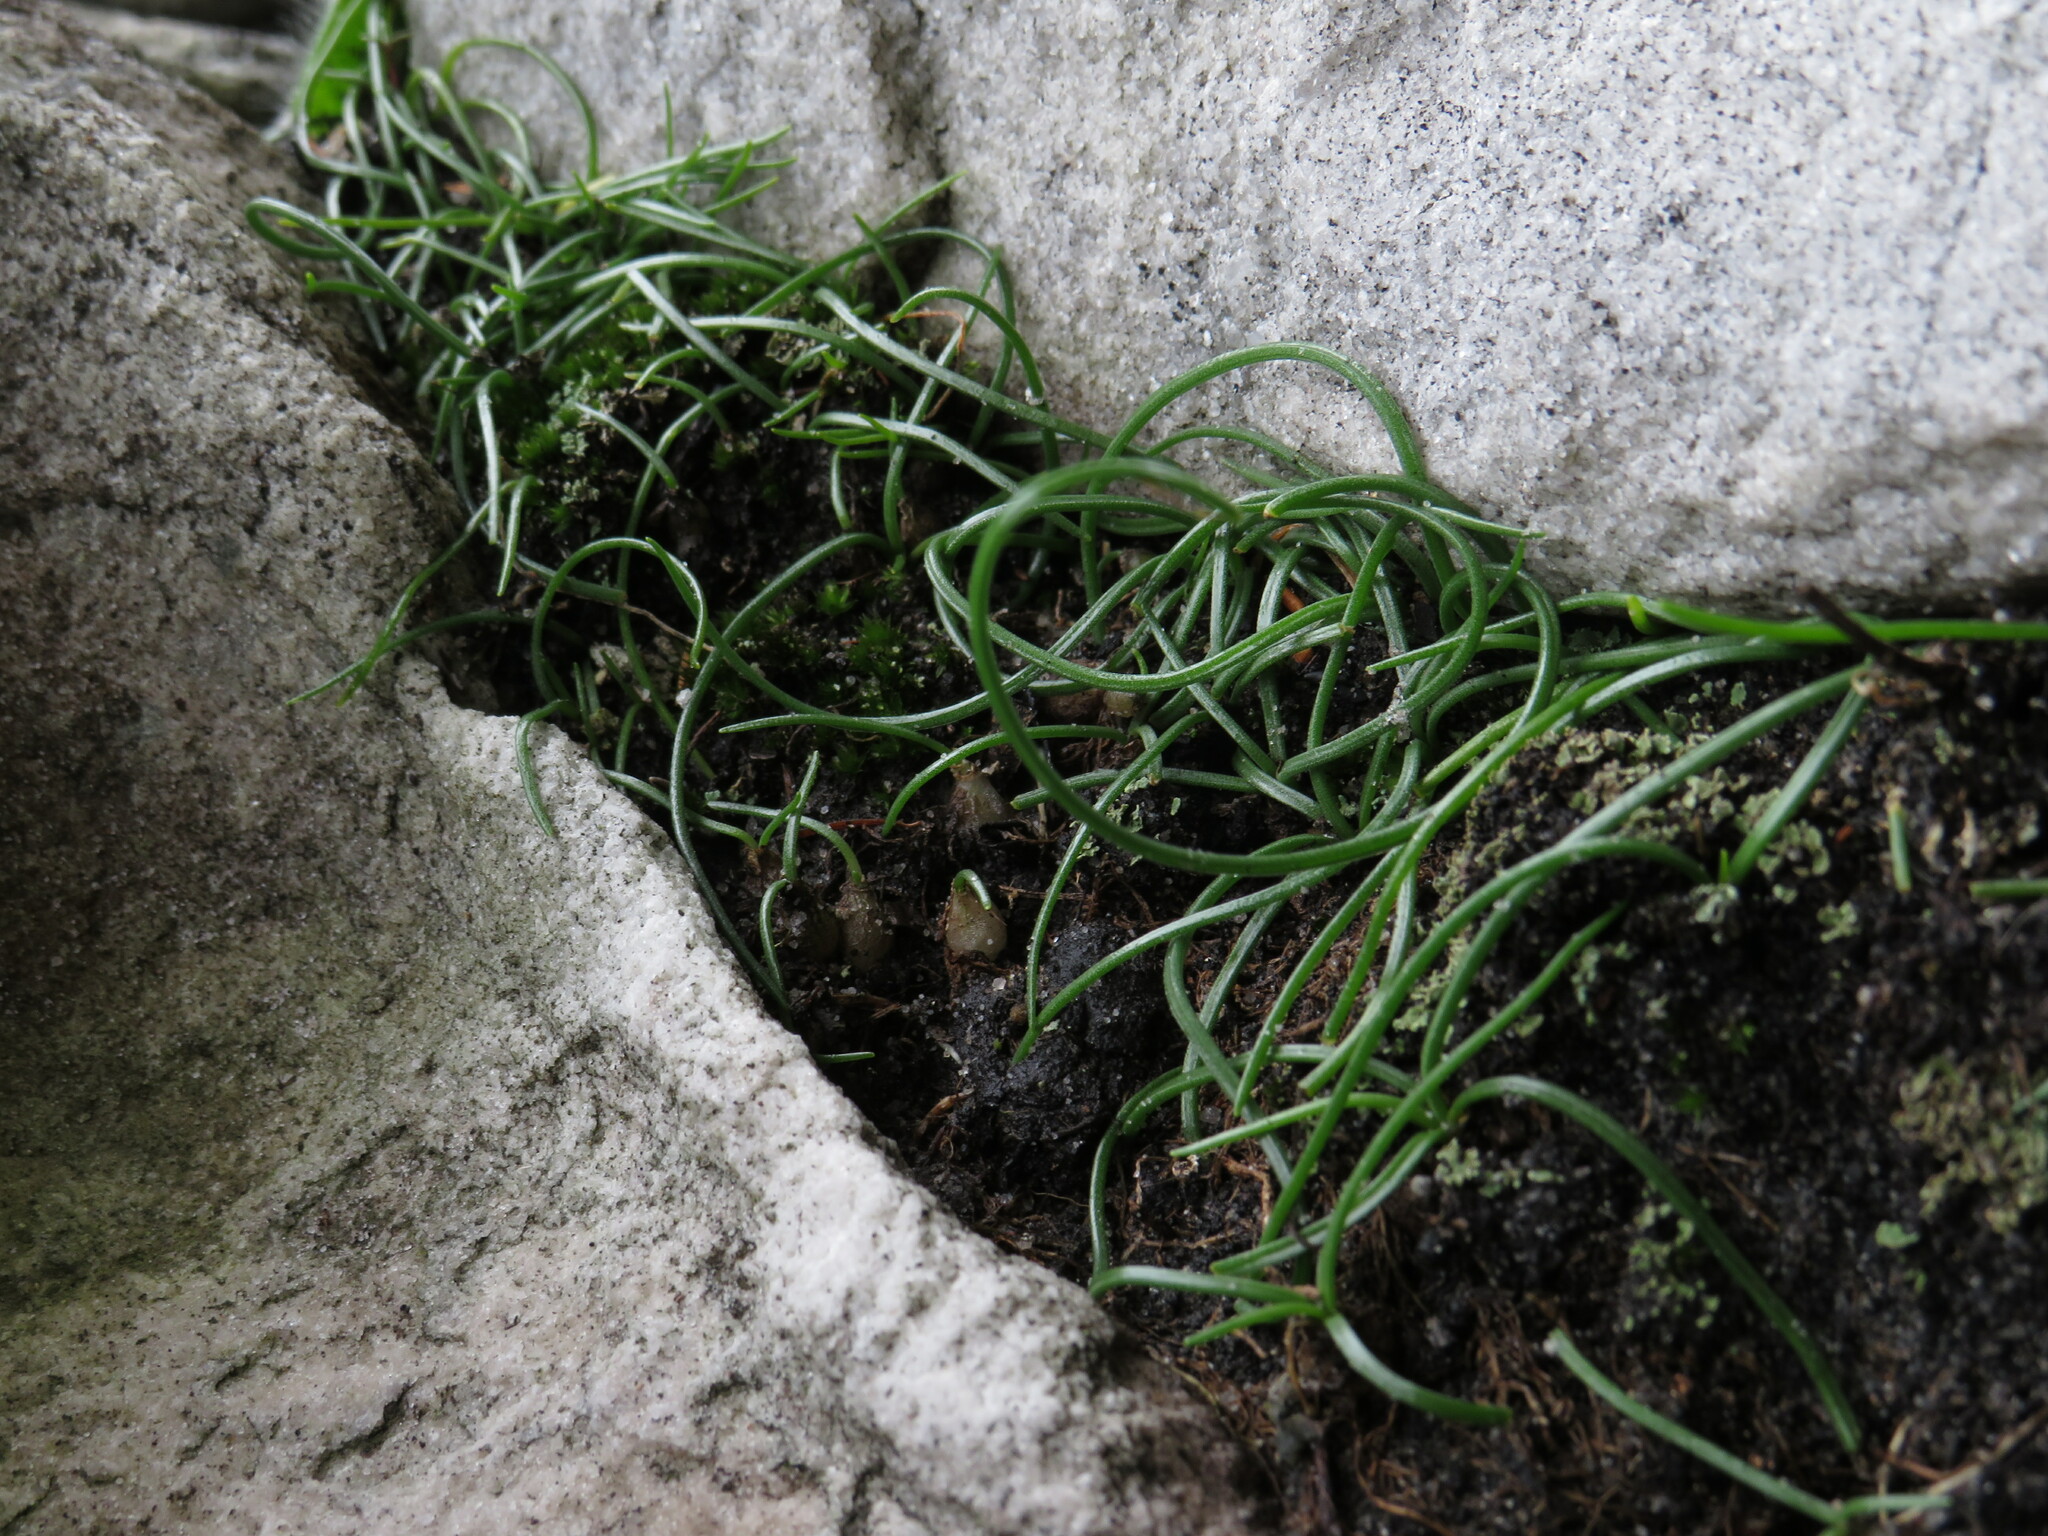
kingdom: Plantae
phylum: Tracheophyta
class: Liliopsida
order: Asparagales
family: Asparagaceae
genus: Ornithogalum
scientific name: Ornithogalum niveum
